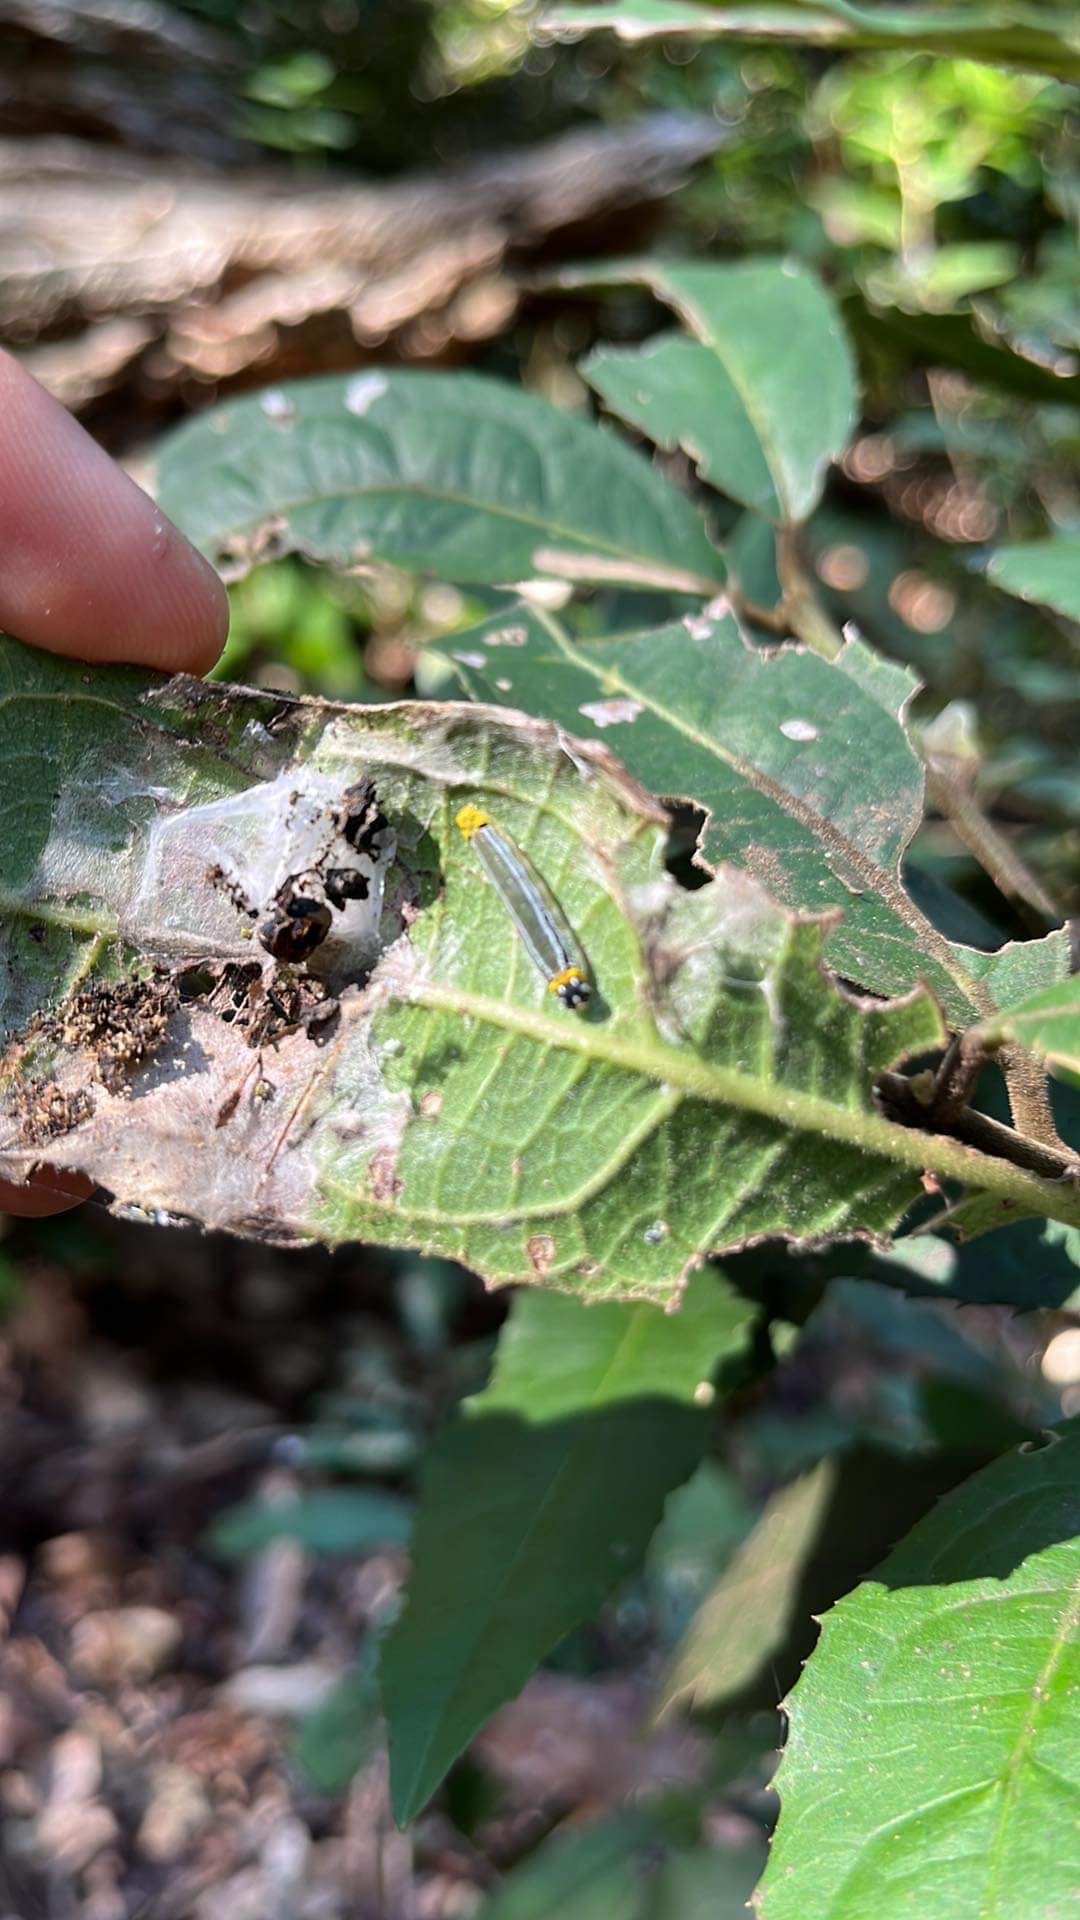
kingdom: Animalia
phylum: Arthropoda
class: Insecta
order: Lepidoptera
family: Hesperiidae
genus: Euschemon
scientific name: Euschemon rafflesia
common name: Regent skipper
